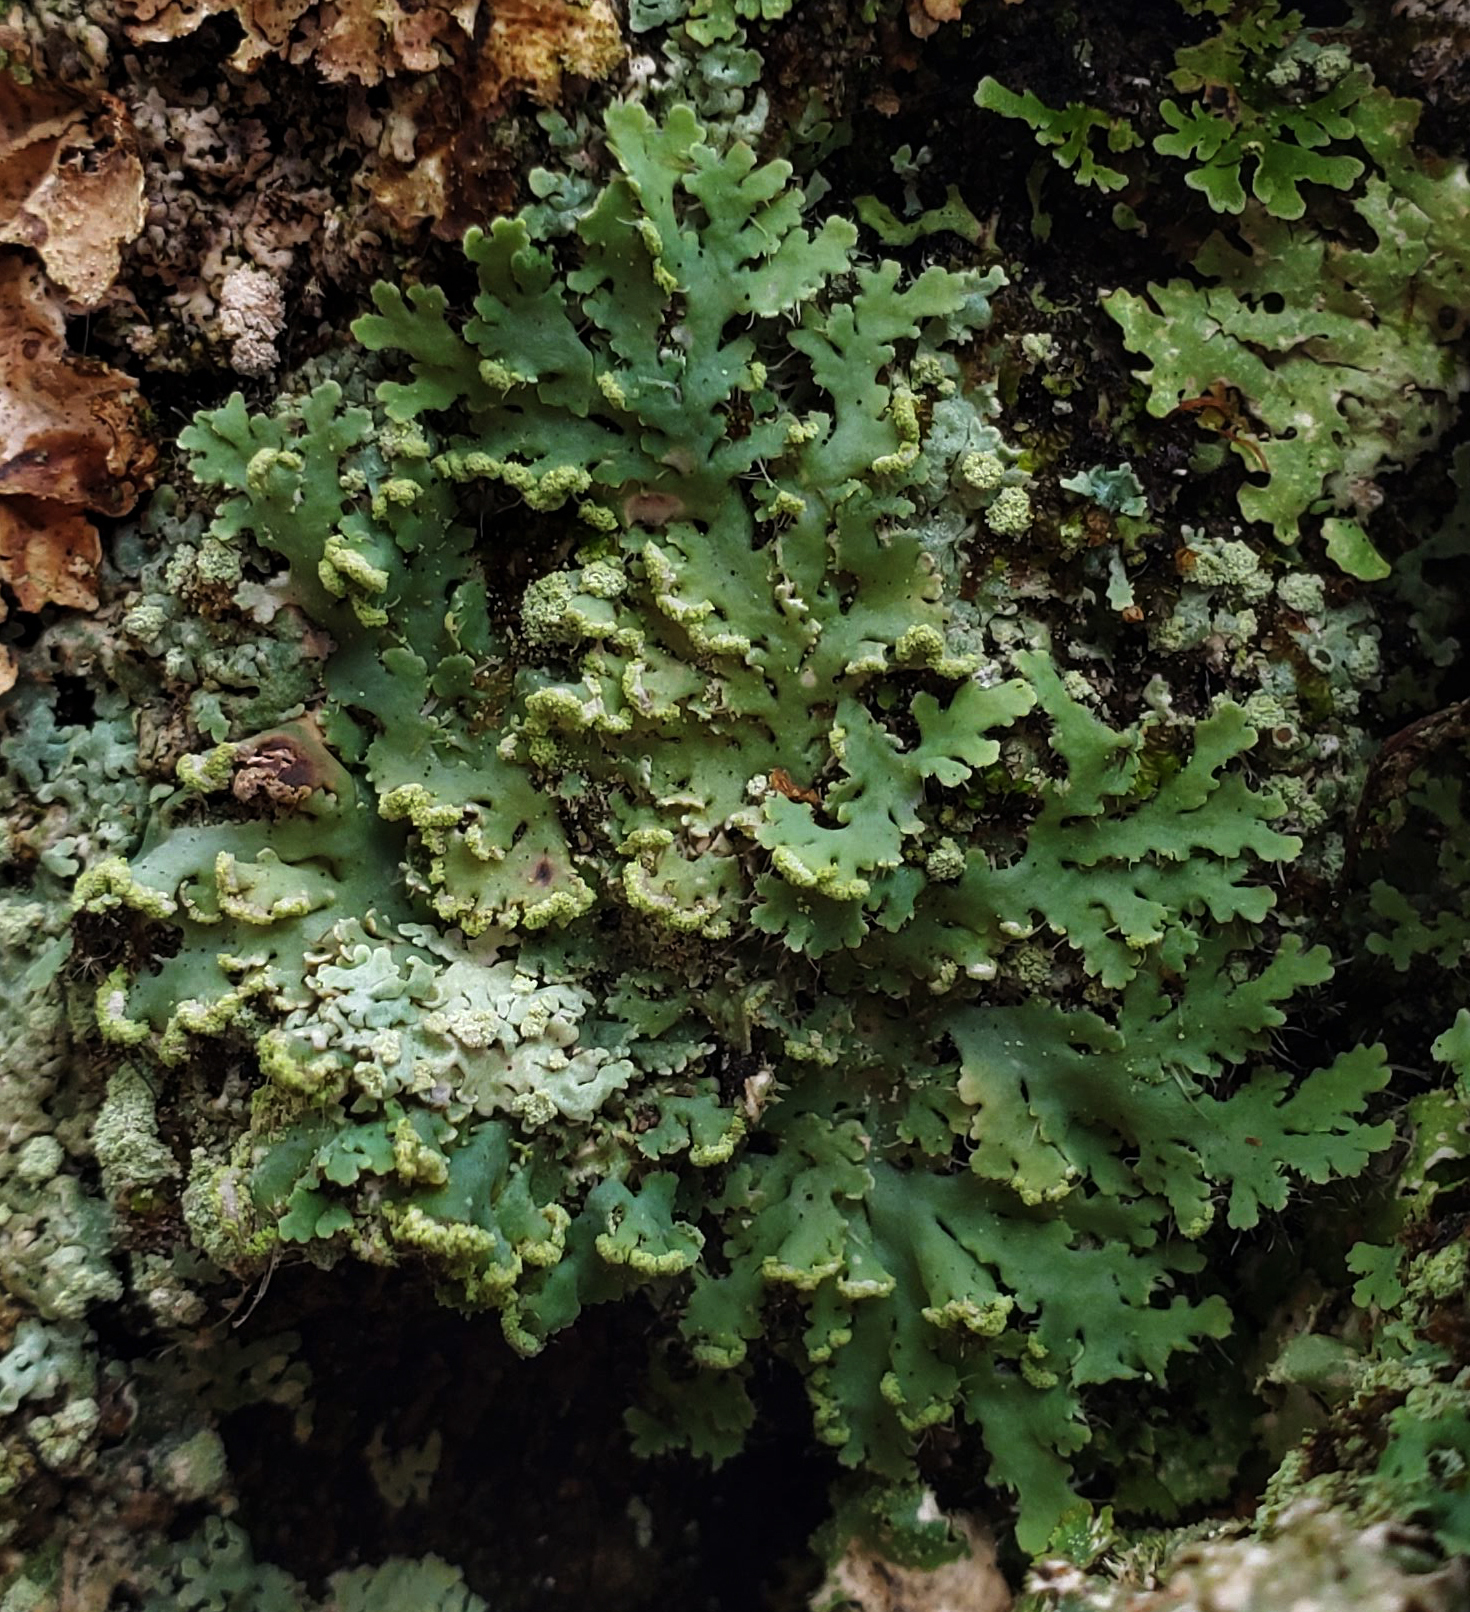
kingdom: Fungi
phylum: Ascomycota
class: Lecanoromycetes
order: Caliciales
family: Physciaceae
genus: Heterodermia
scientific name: Heterodermia speciosa
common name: Powdered fringe lichen
